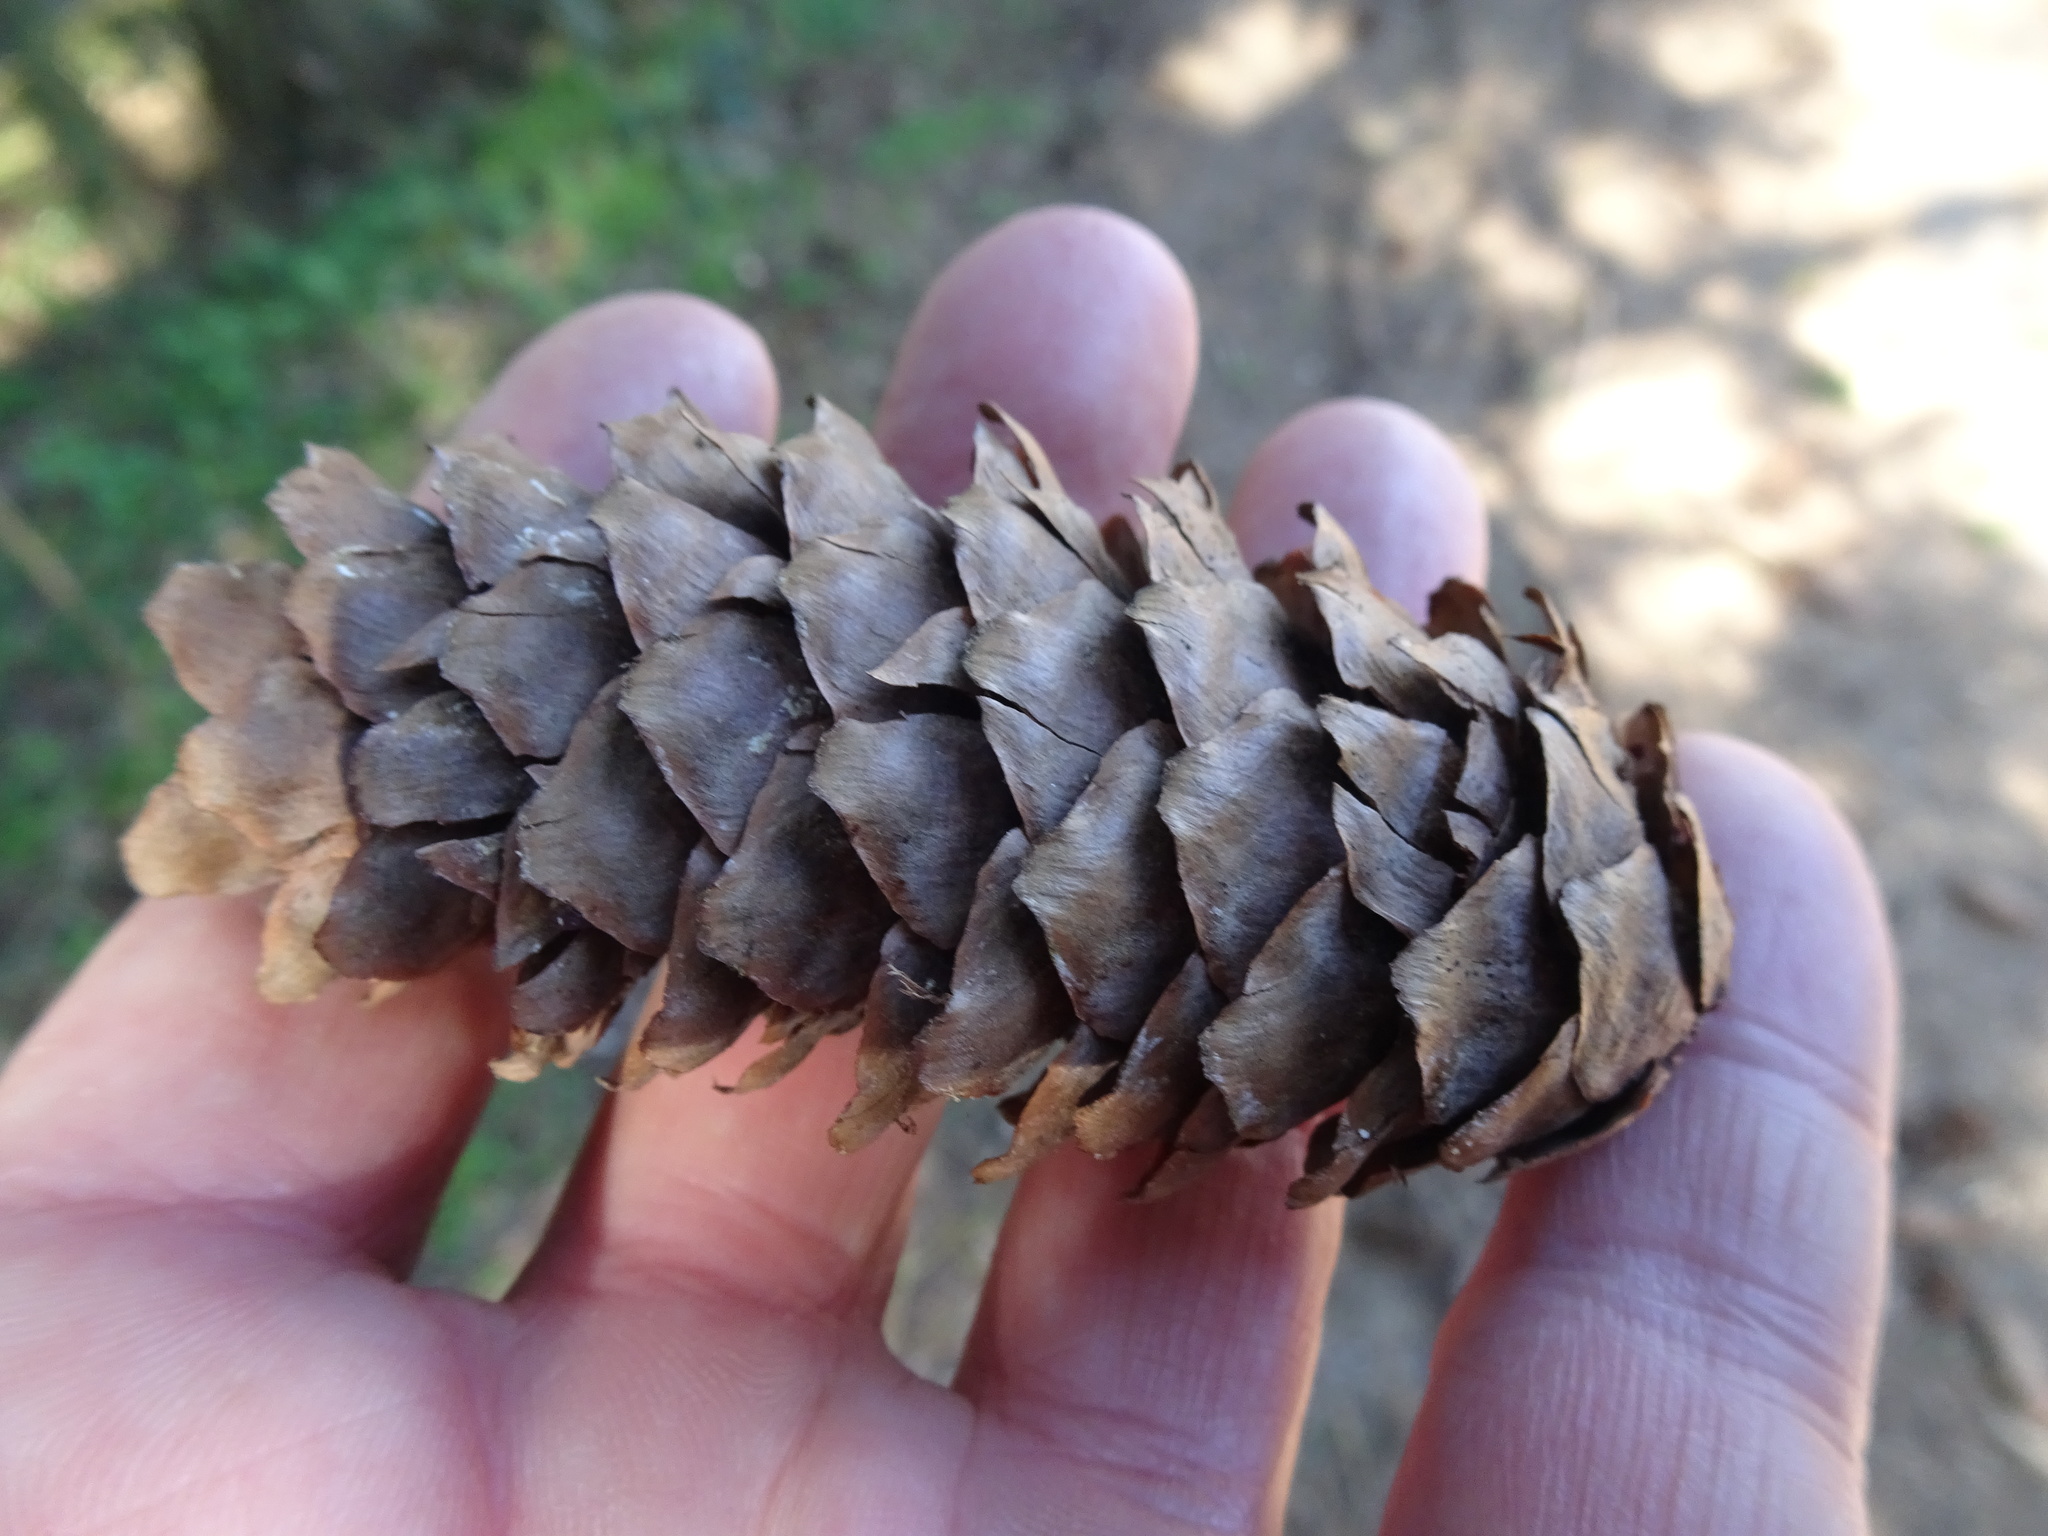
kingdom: Plantae
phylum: Tracheophyta
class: Pinopsida
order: Pinales
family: Pinaceae
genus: Picea
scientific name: Picea abies
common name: Norway spruce
